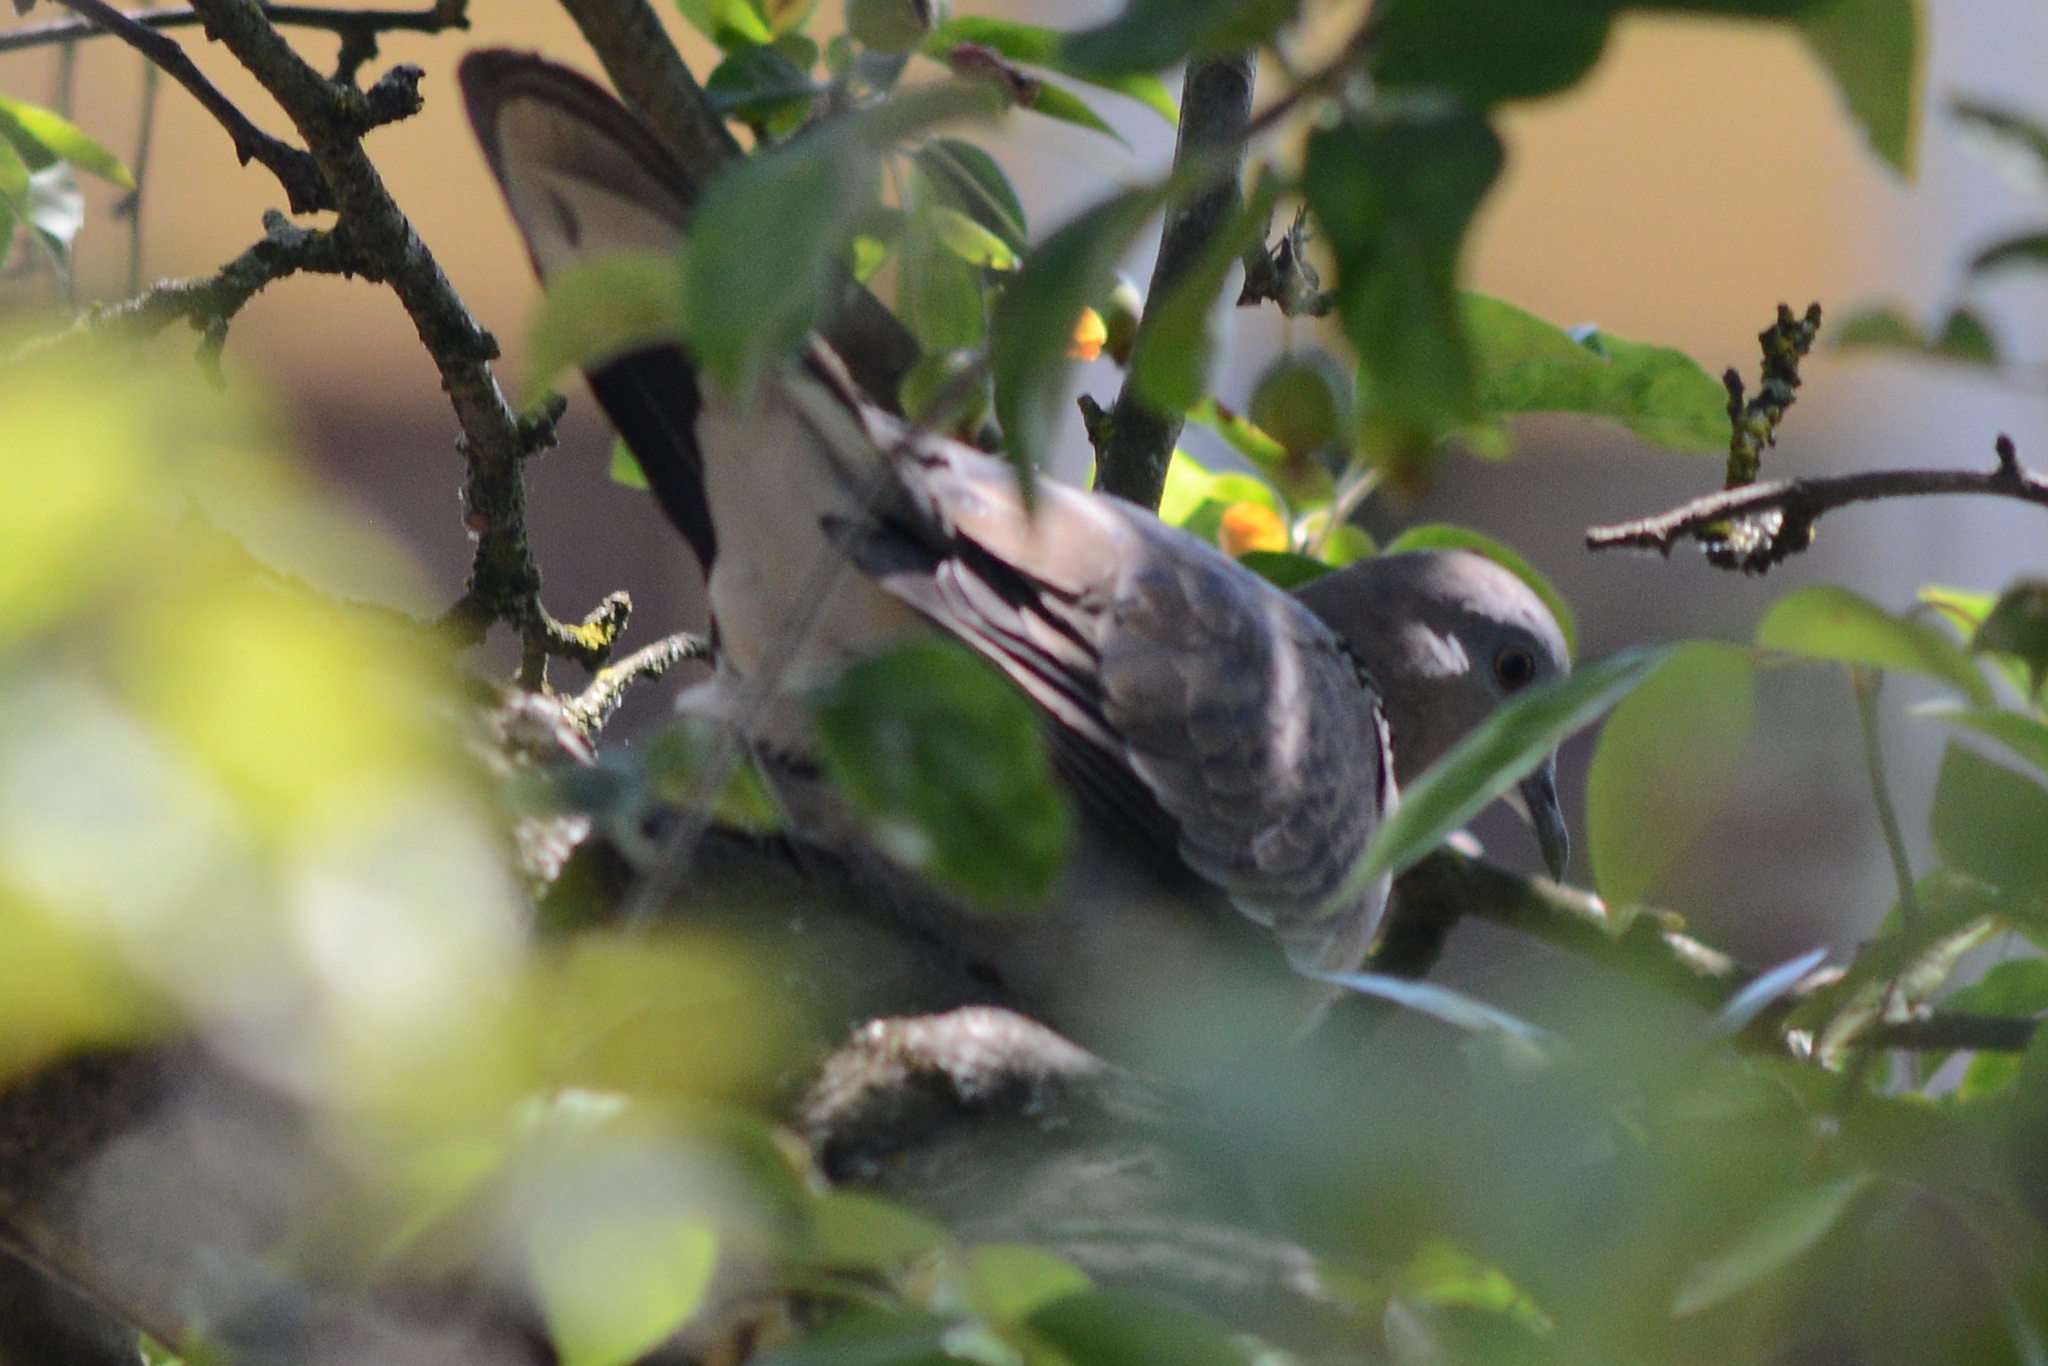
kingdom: Animalia
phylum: Chordata
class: Aves
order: Columbiformes
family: Columbidae
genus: Spilopelia
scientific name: Spilopelia chinensis
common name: Spotted dove
